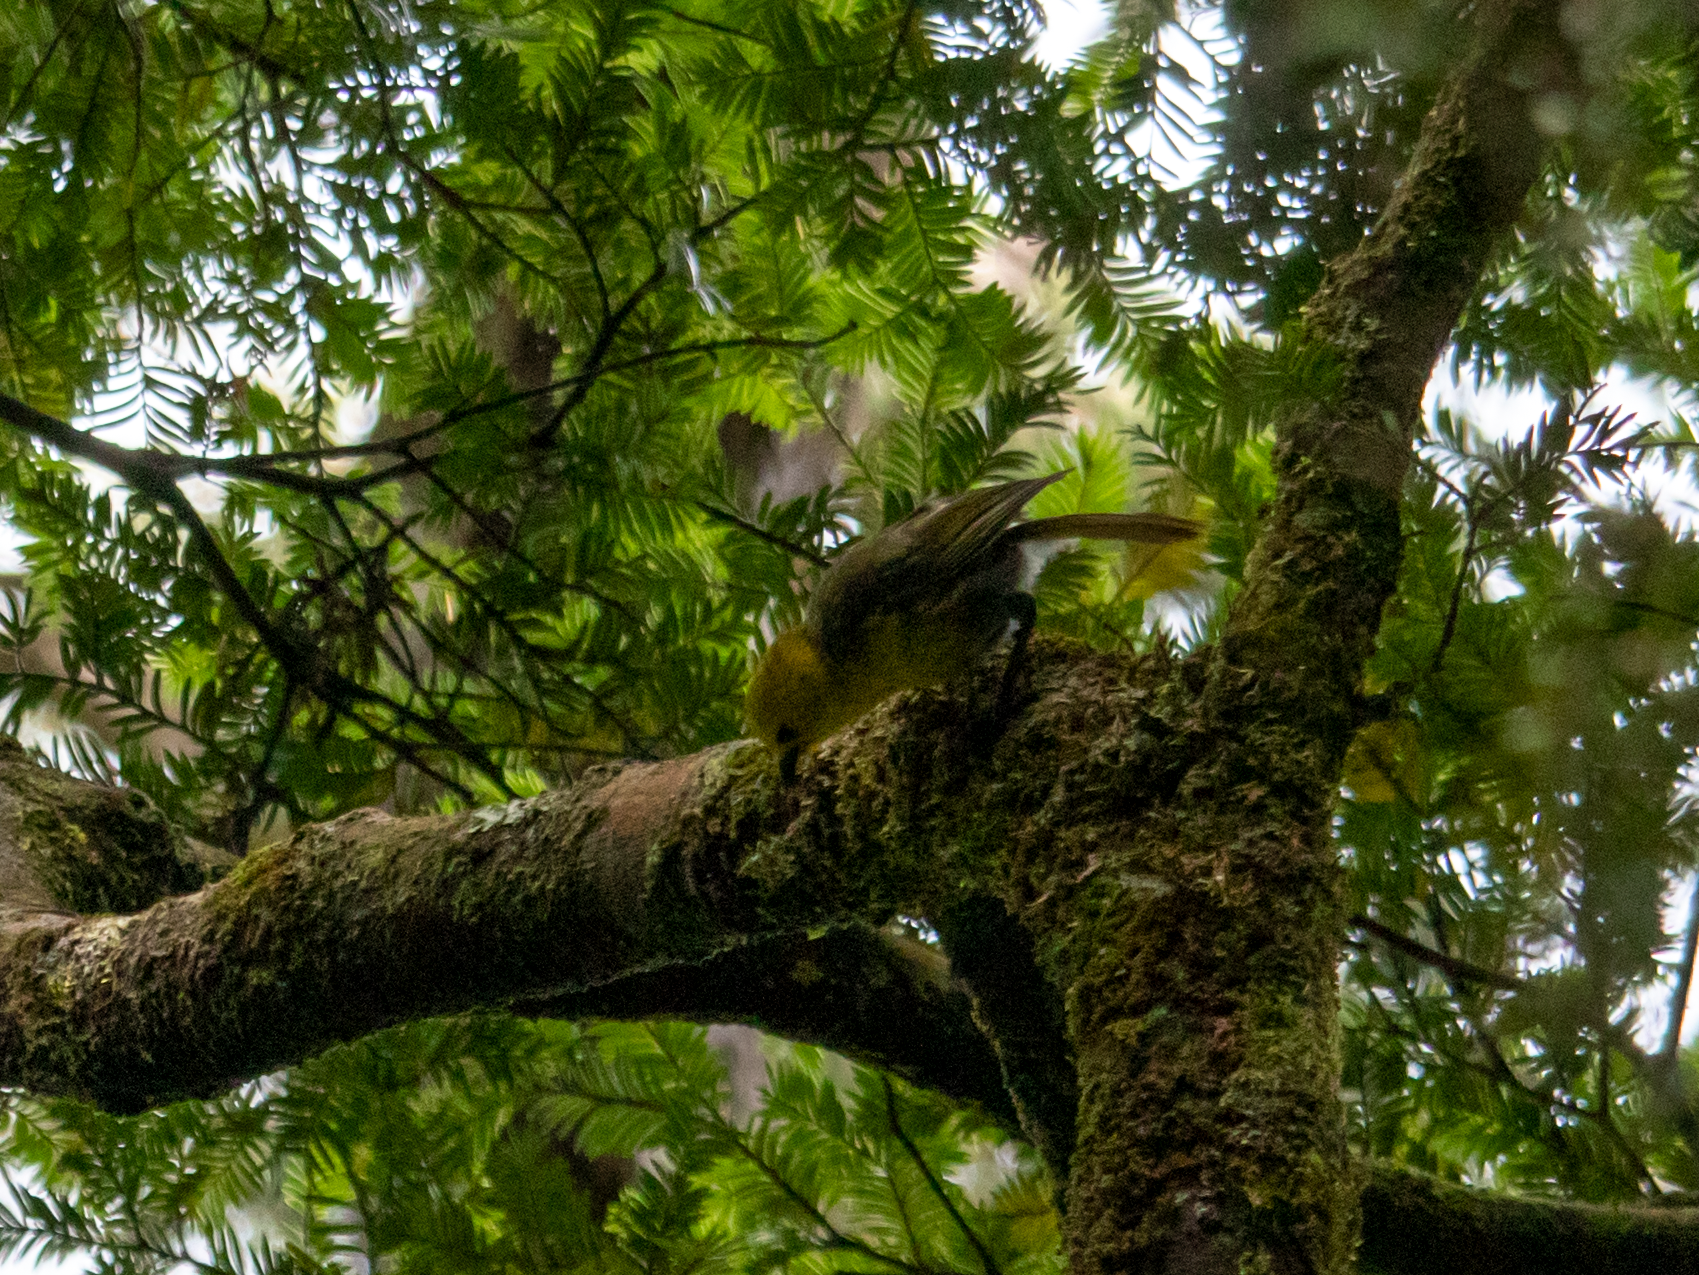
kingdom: Animalia
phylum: Chordata
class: Aves
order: Passeriformes
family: Acanthizidae
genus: Mohoua
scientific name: Mohoua ochrocephala
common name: Yellowhead
